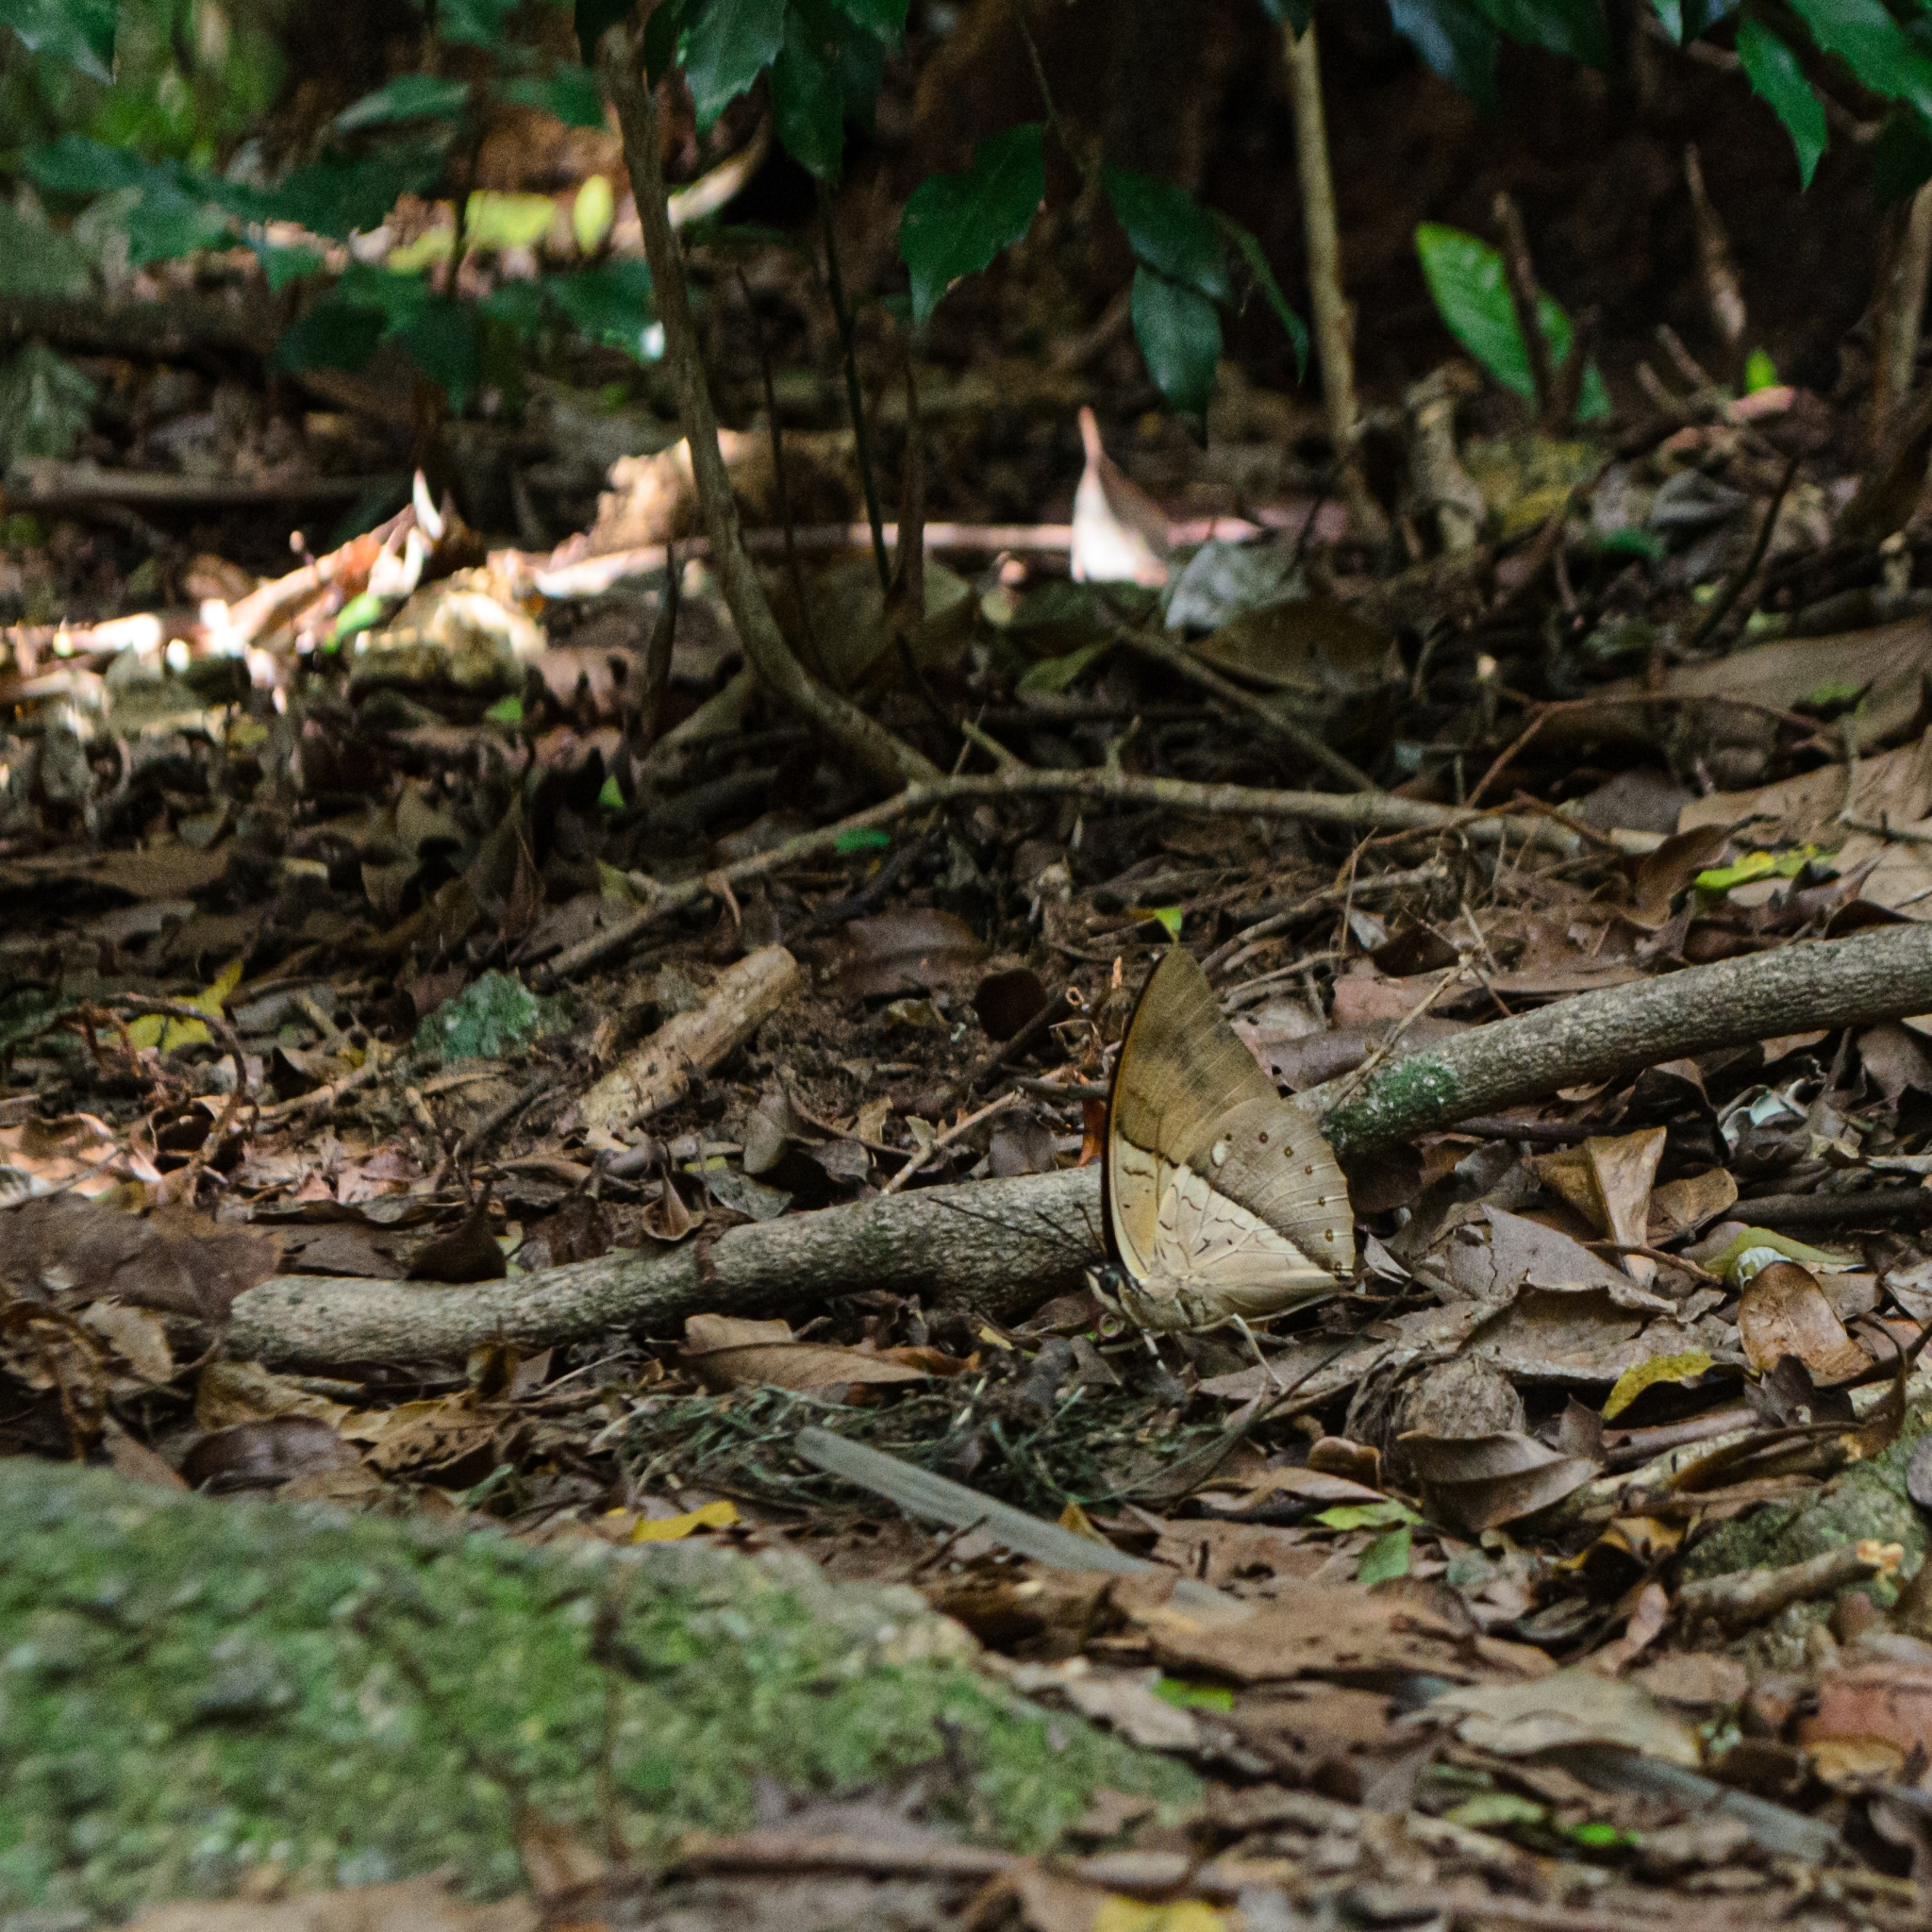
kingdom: Animalia
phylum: Arthropoda
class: Insecta
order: Lepidoptera
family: Nymphalidae
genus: Prepona
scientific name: Prepona meander
